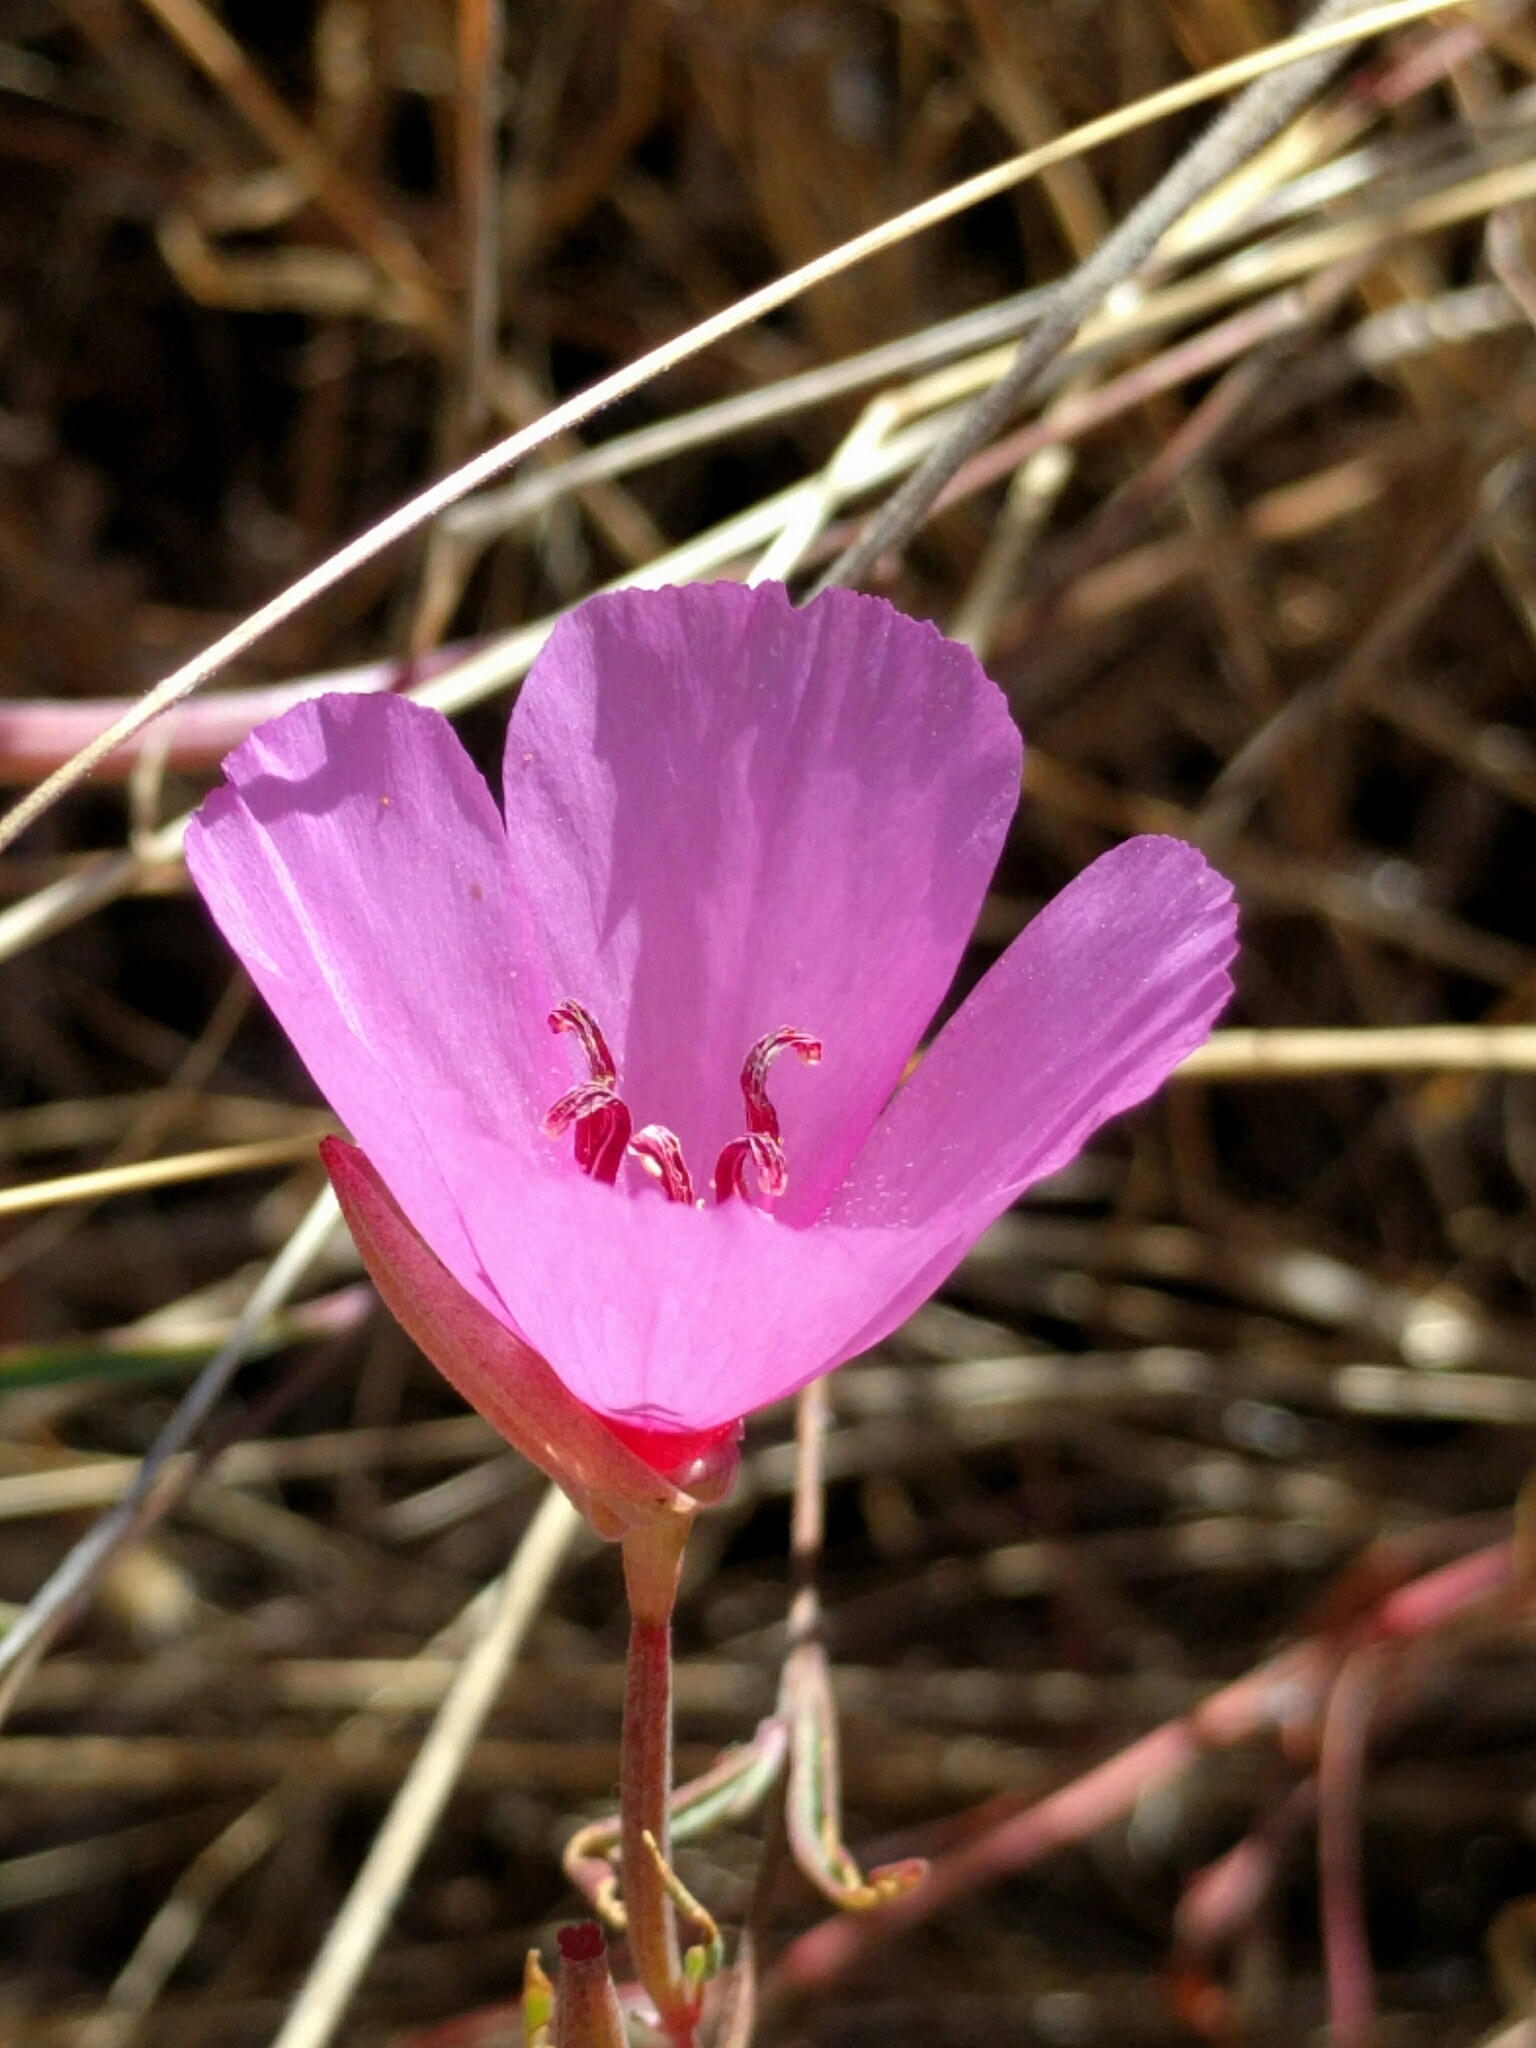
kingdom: Plantae
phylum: Tracheophyta
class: Magnoliopsida
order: Myrtales
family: Onagraceae
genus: Clarkia
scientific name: Clarkia rubicunda
